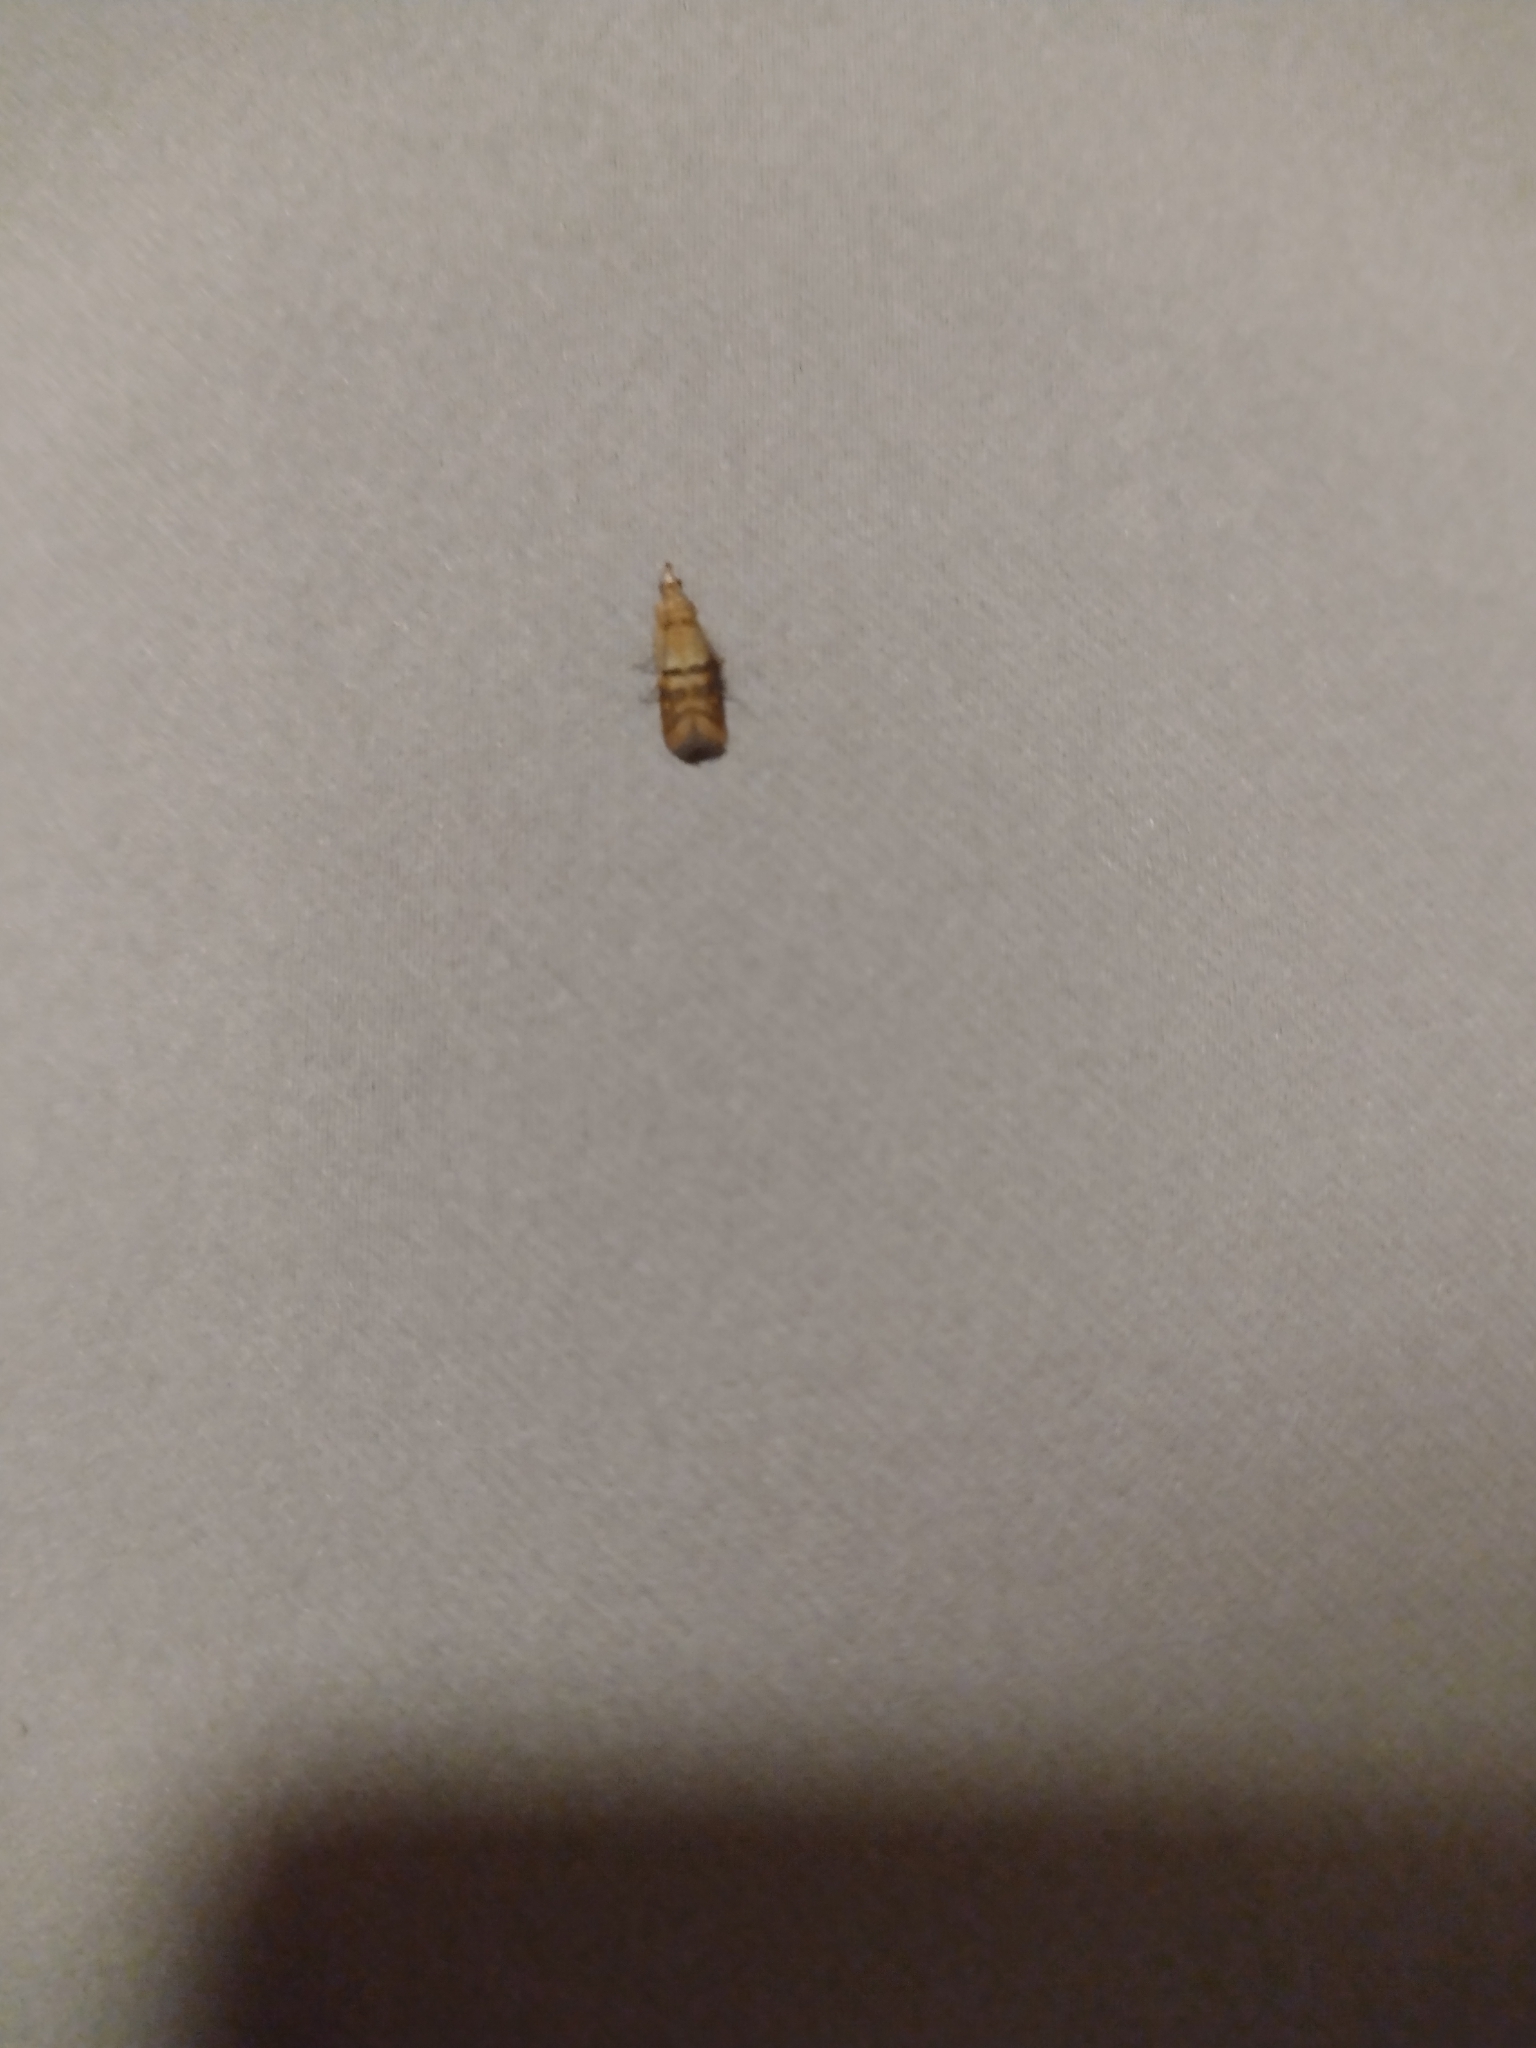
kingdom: Animalia
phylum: Arthropoda
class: Insecta
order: Lepidoptera
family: Pyralidae
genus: Plodia
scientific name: Plodia interpunctella
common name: Indian meal moth
